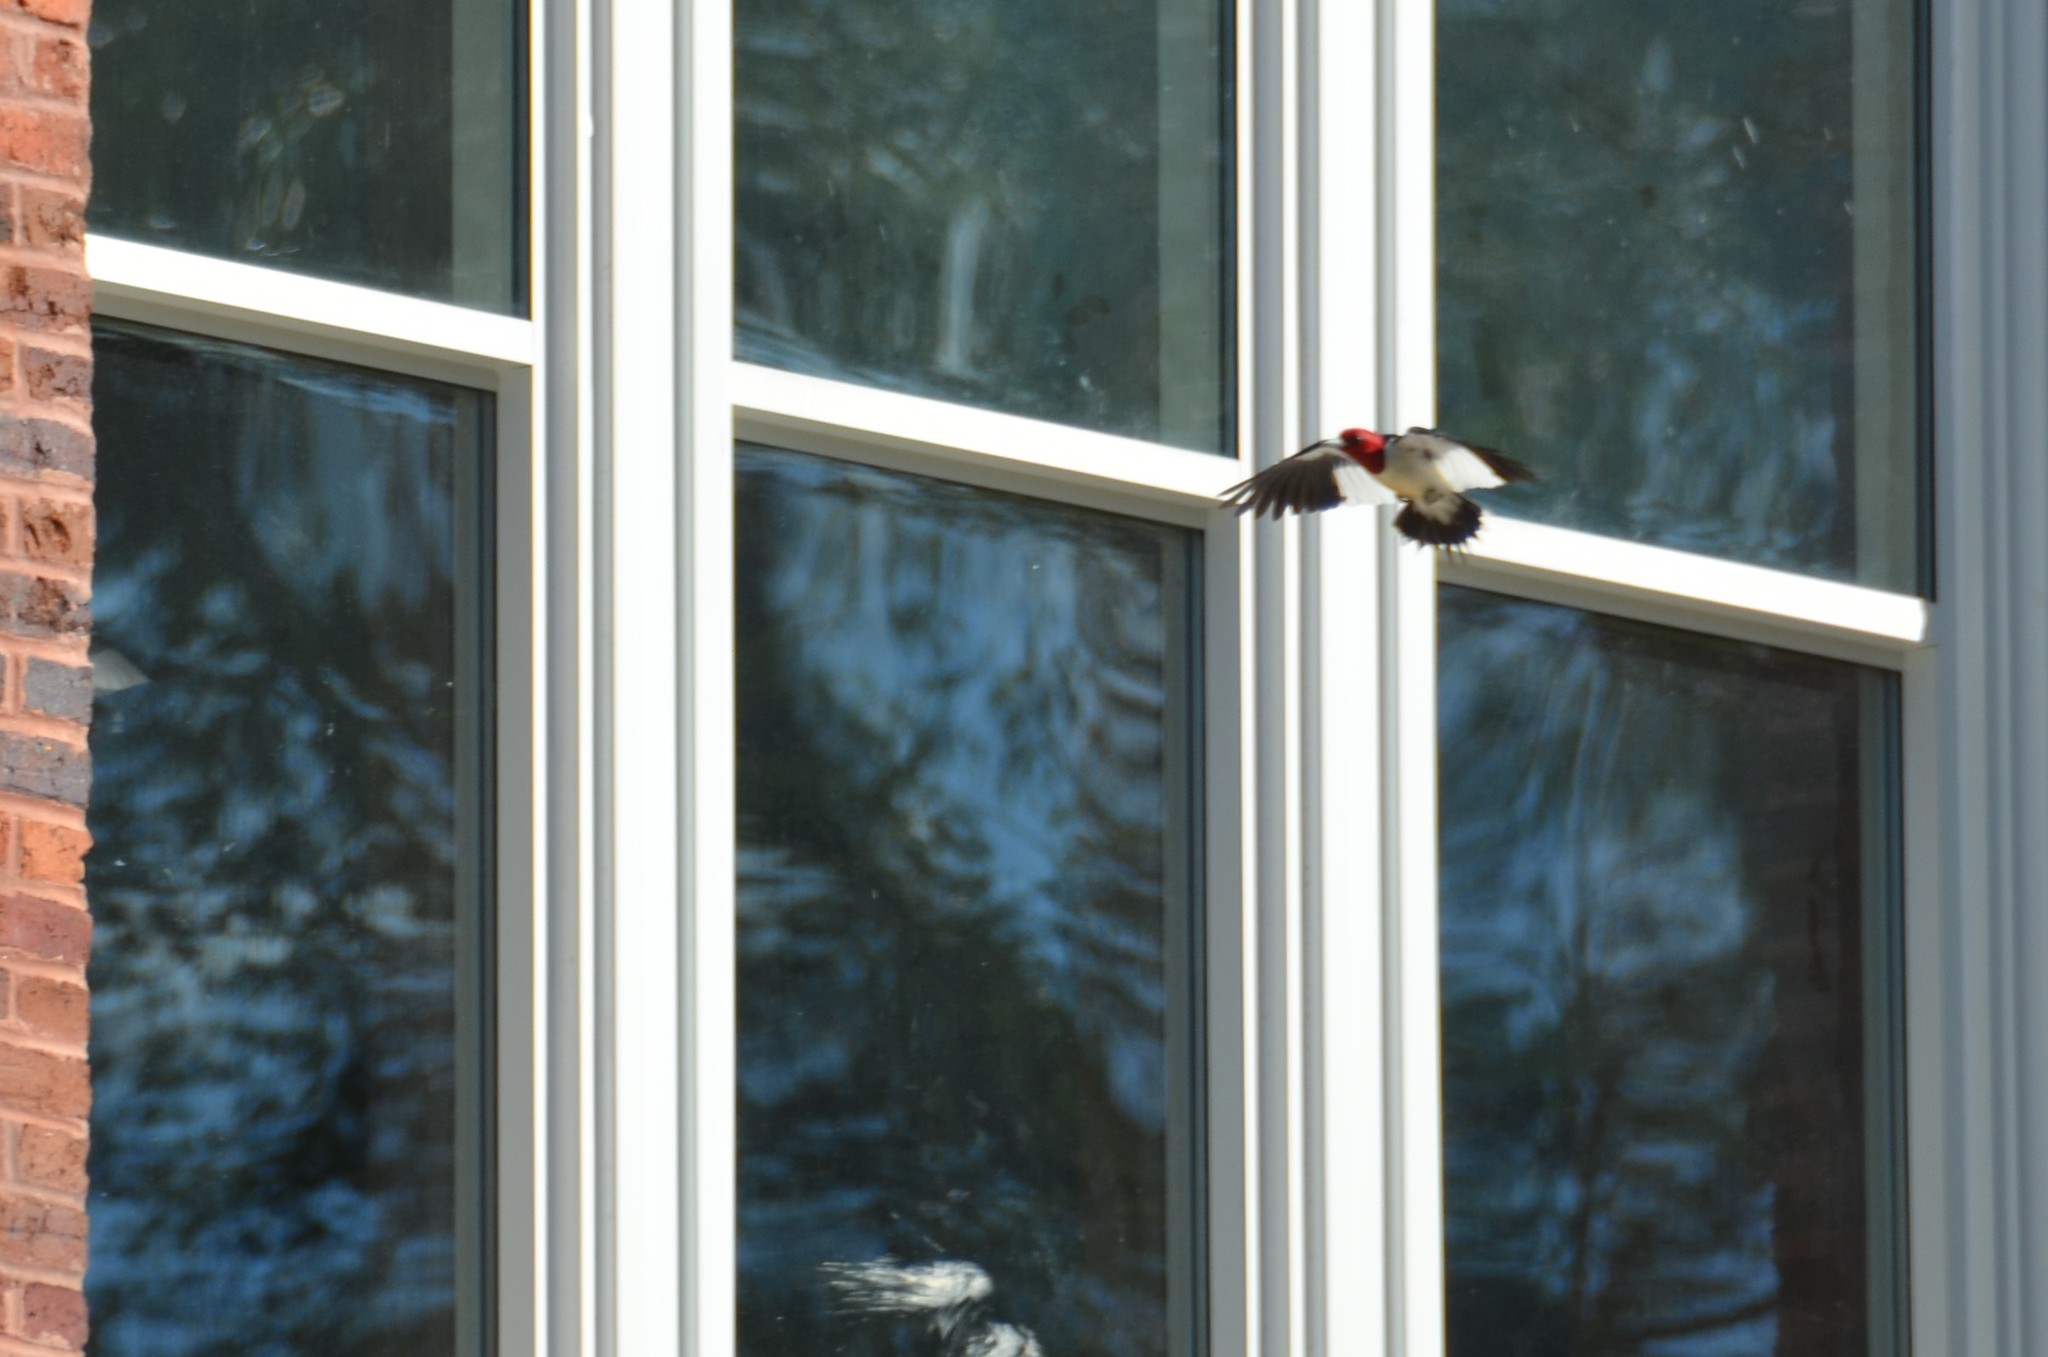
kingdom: Animalia
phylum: Chordata
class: Aves
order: Piciformes
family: Picidae
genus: Melanerpes
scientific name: Melanerpes erythrocephalus
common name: Red-headed woodpecker
